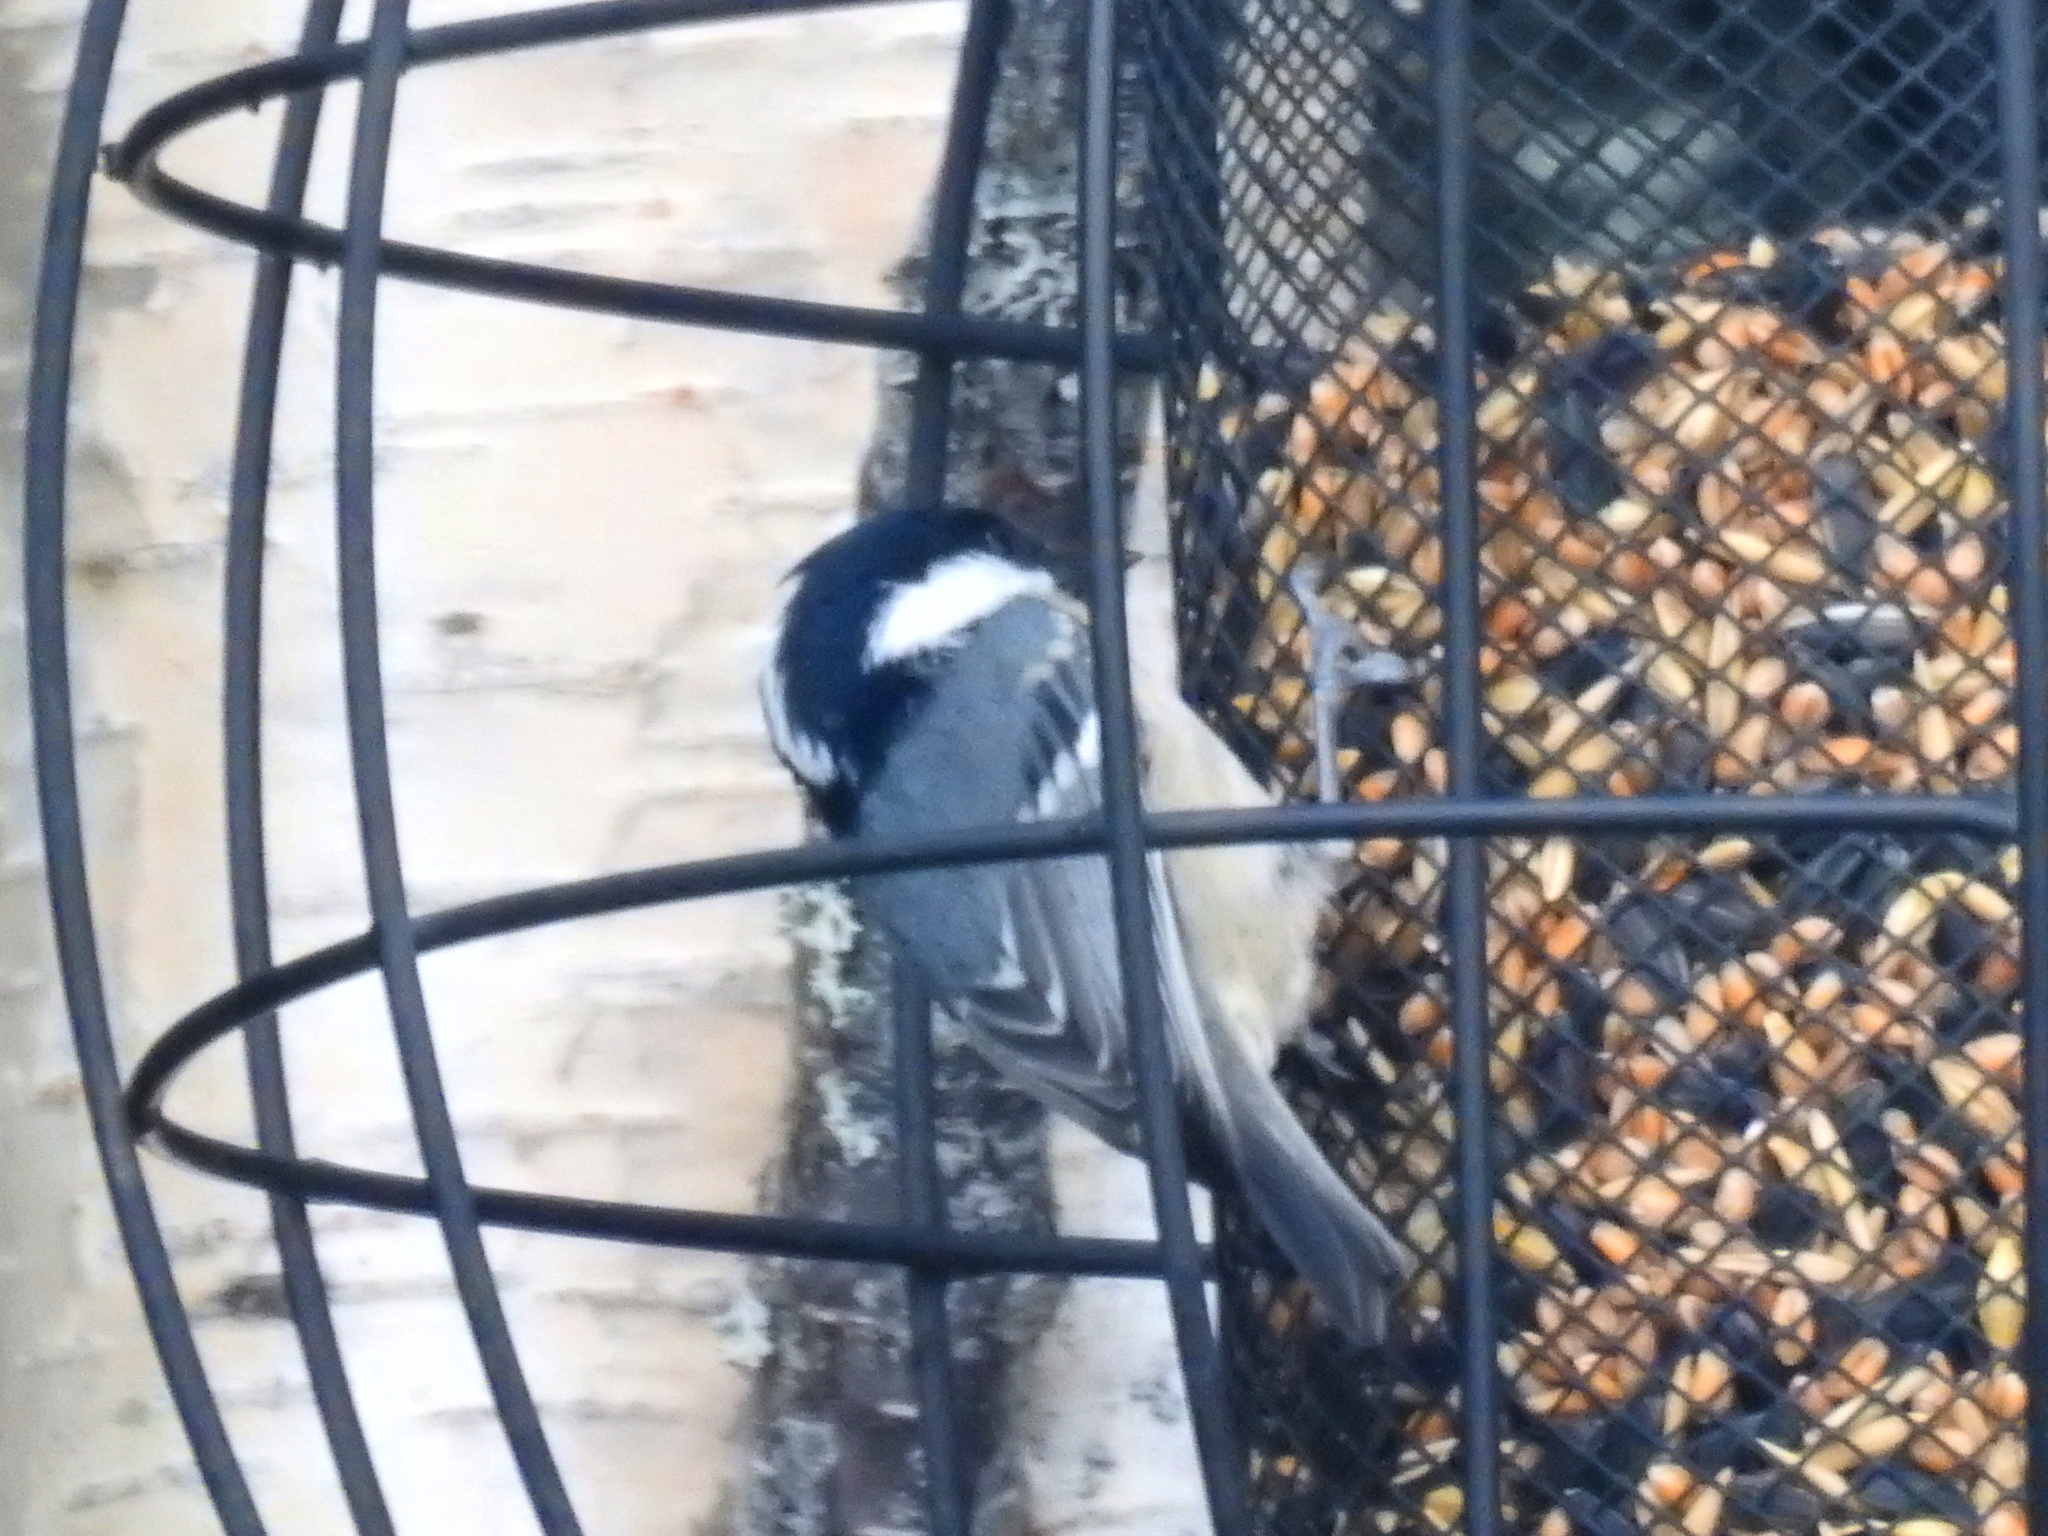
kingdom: Animalia
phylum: Chordata
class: Aves
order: Passeriformes
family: Paridae
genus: Periparus
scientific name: Periparus ater
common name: Coal tit
